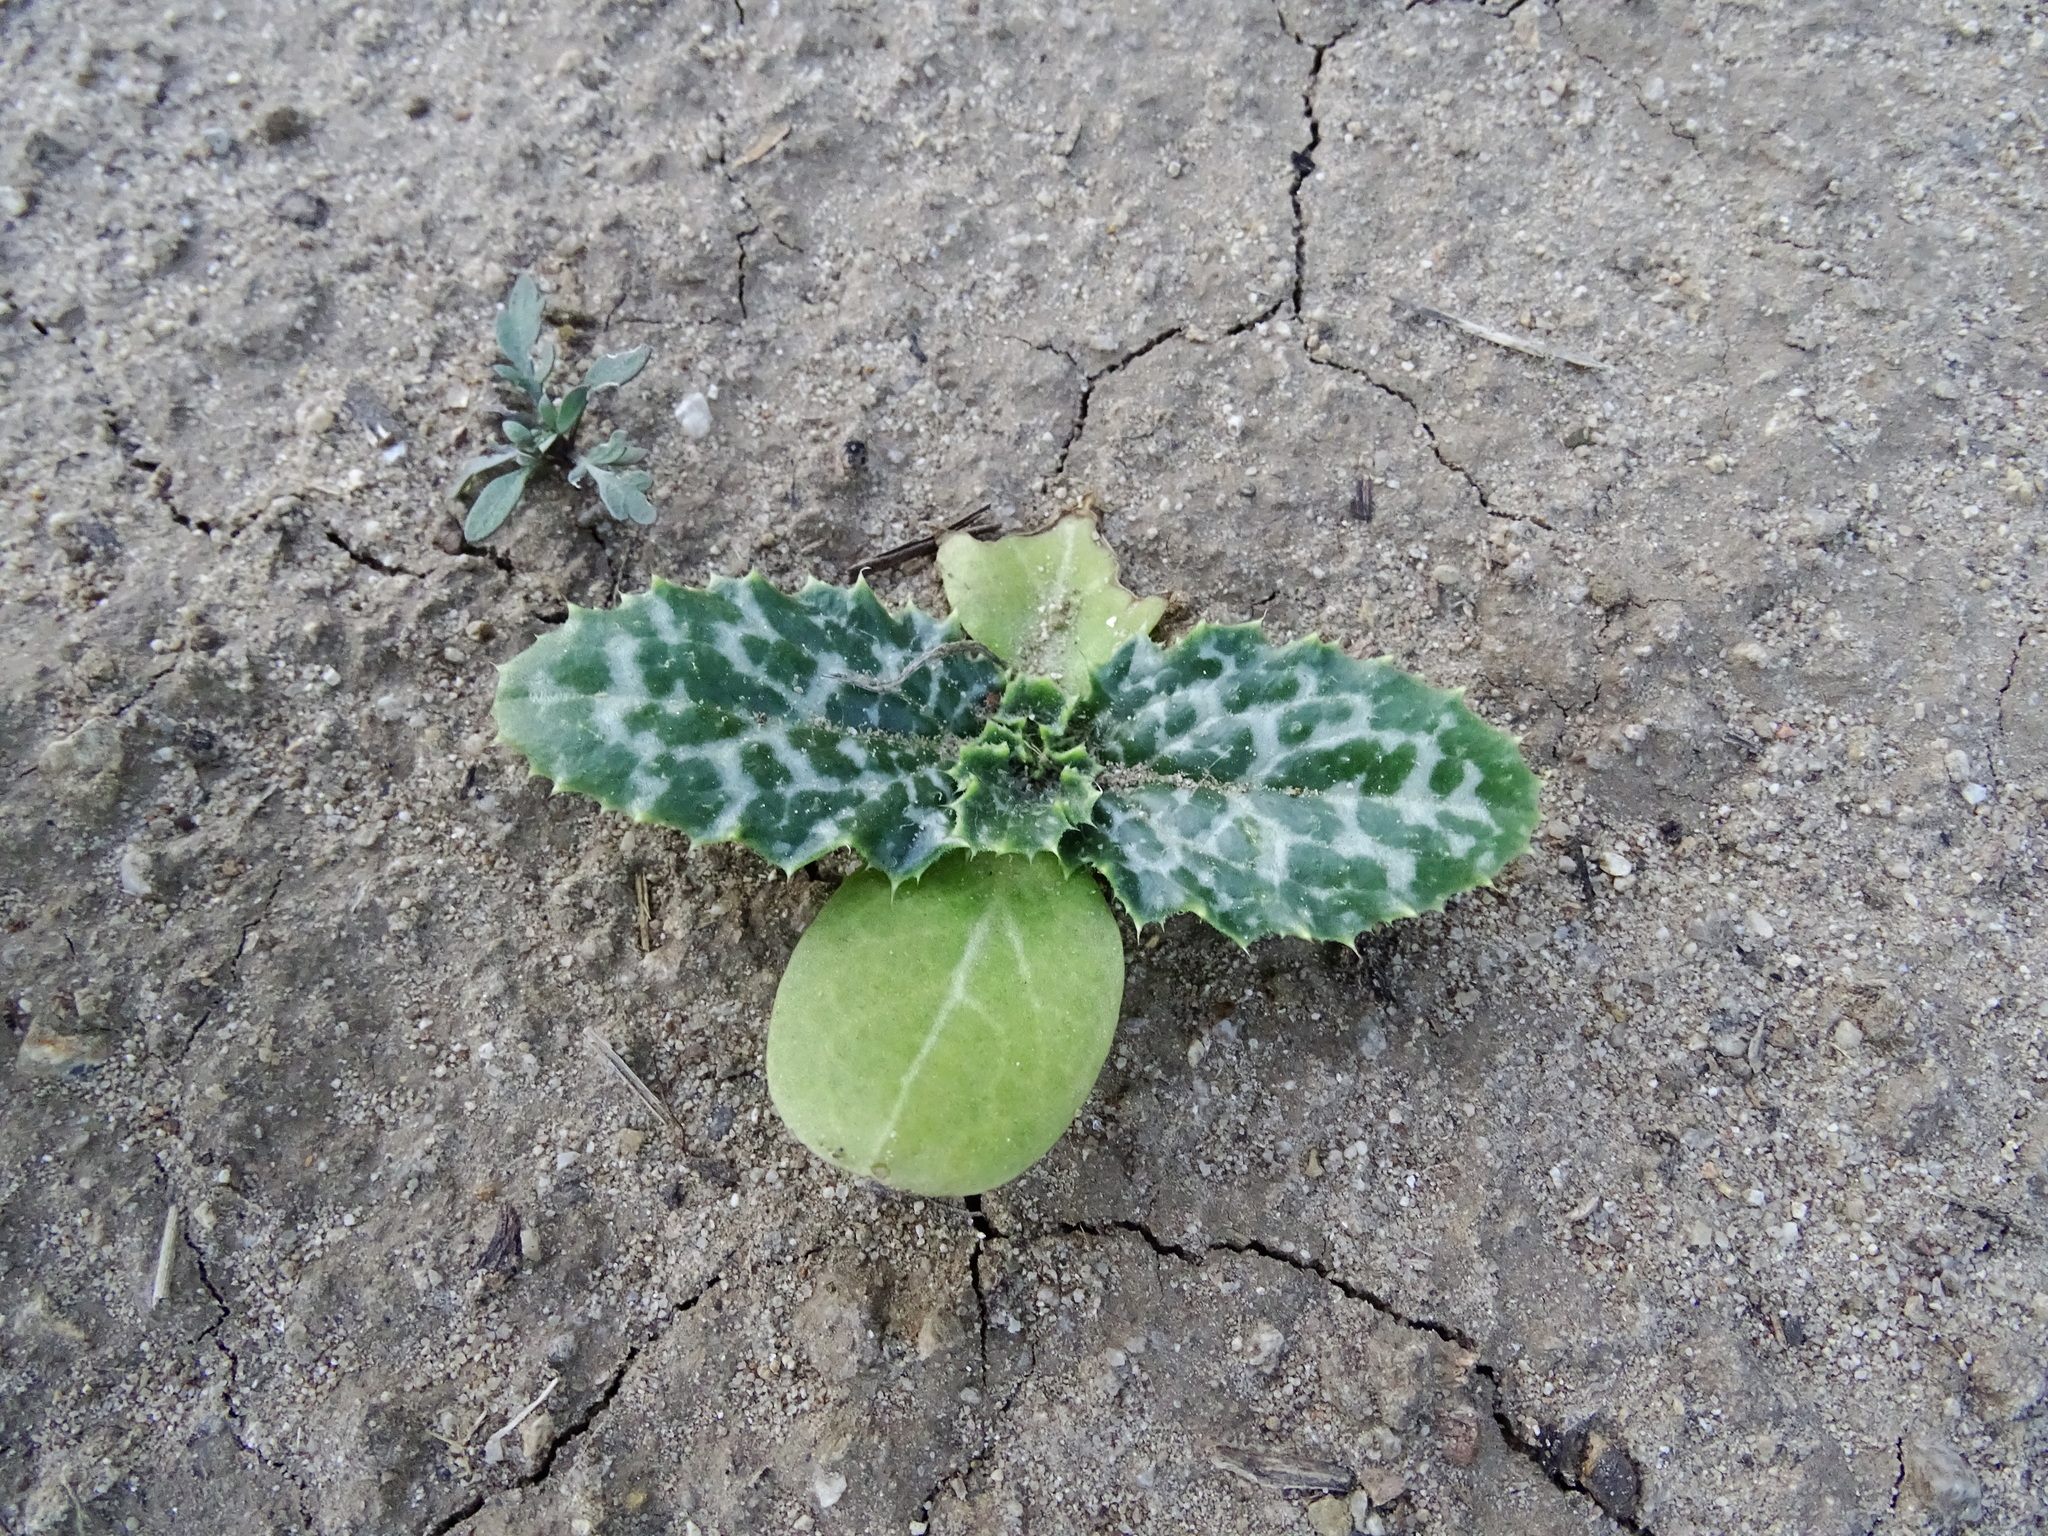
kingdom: Plantae
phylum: Tracheophyta
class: Magnoliopsida
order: Asterales
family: Asteraceae
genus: Silybum
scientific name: Silybum marianum
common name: Milk thistle
